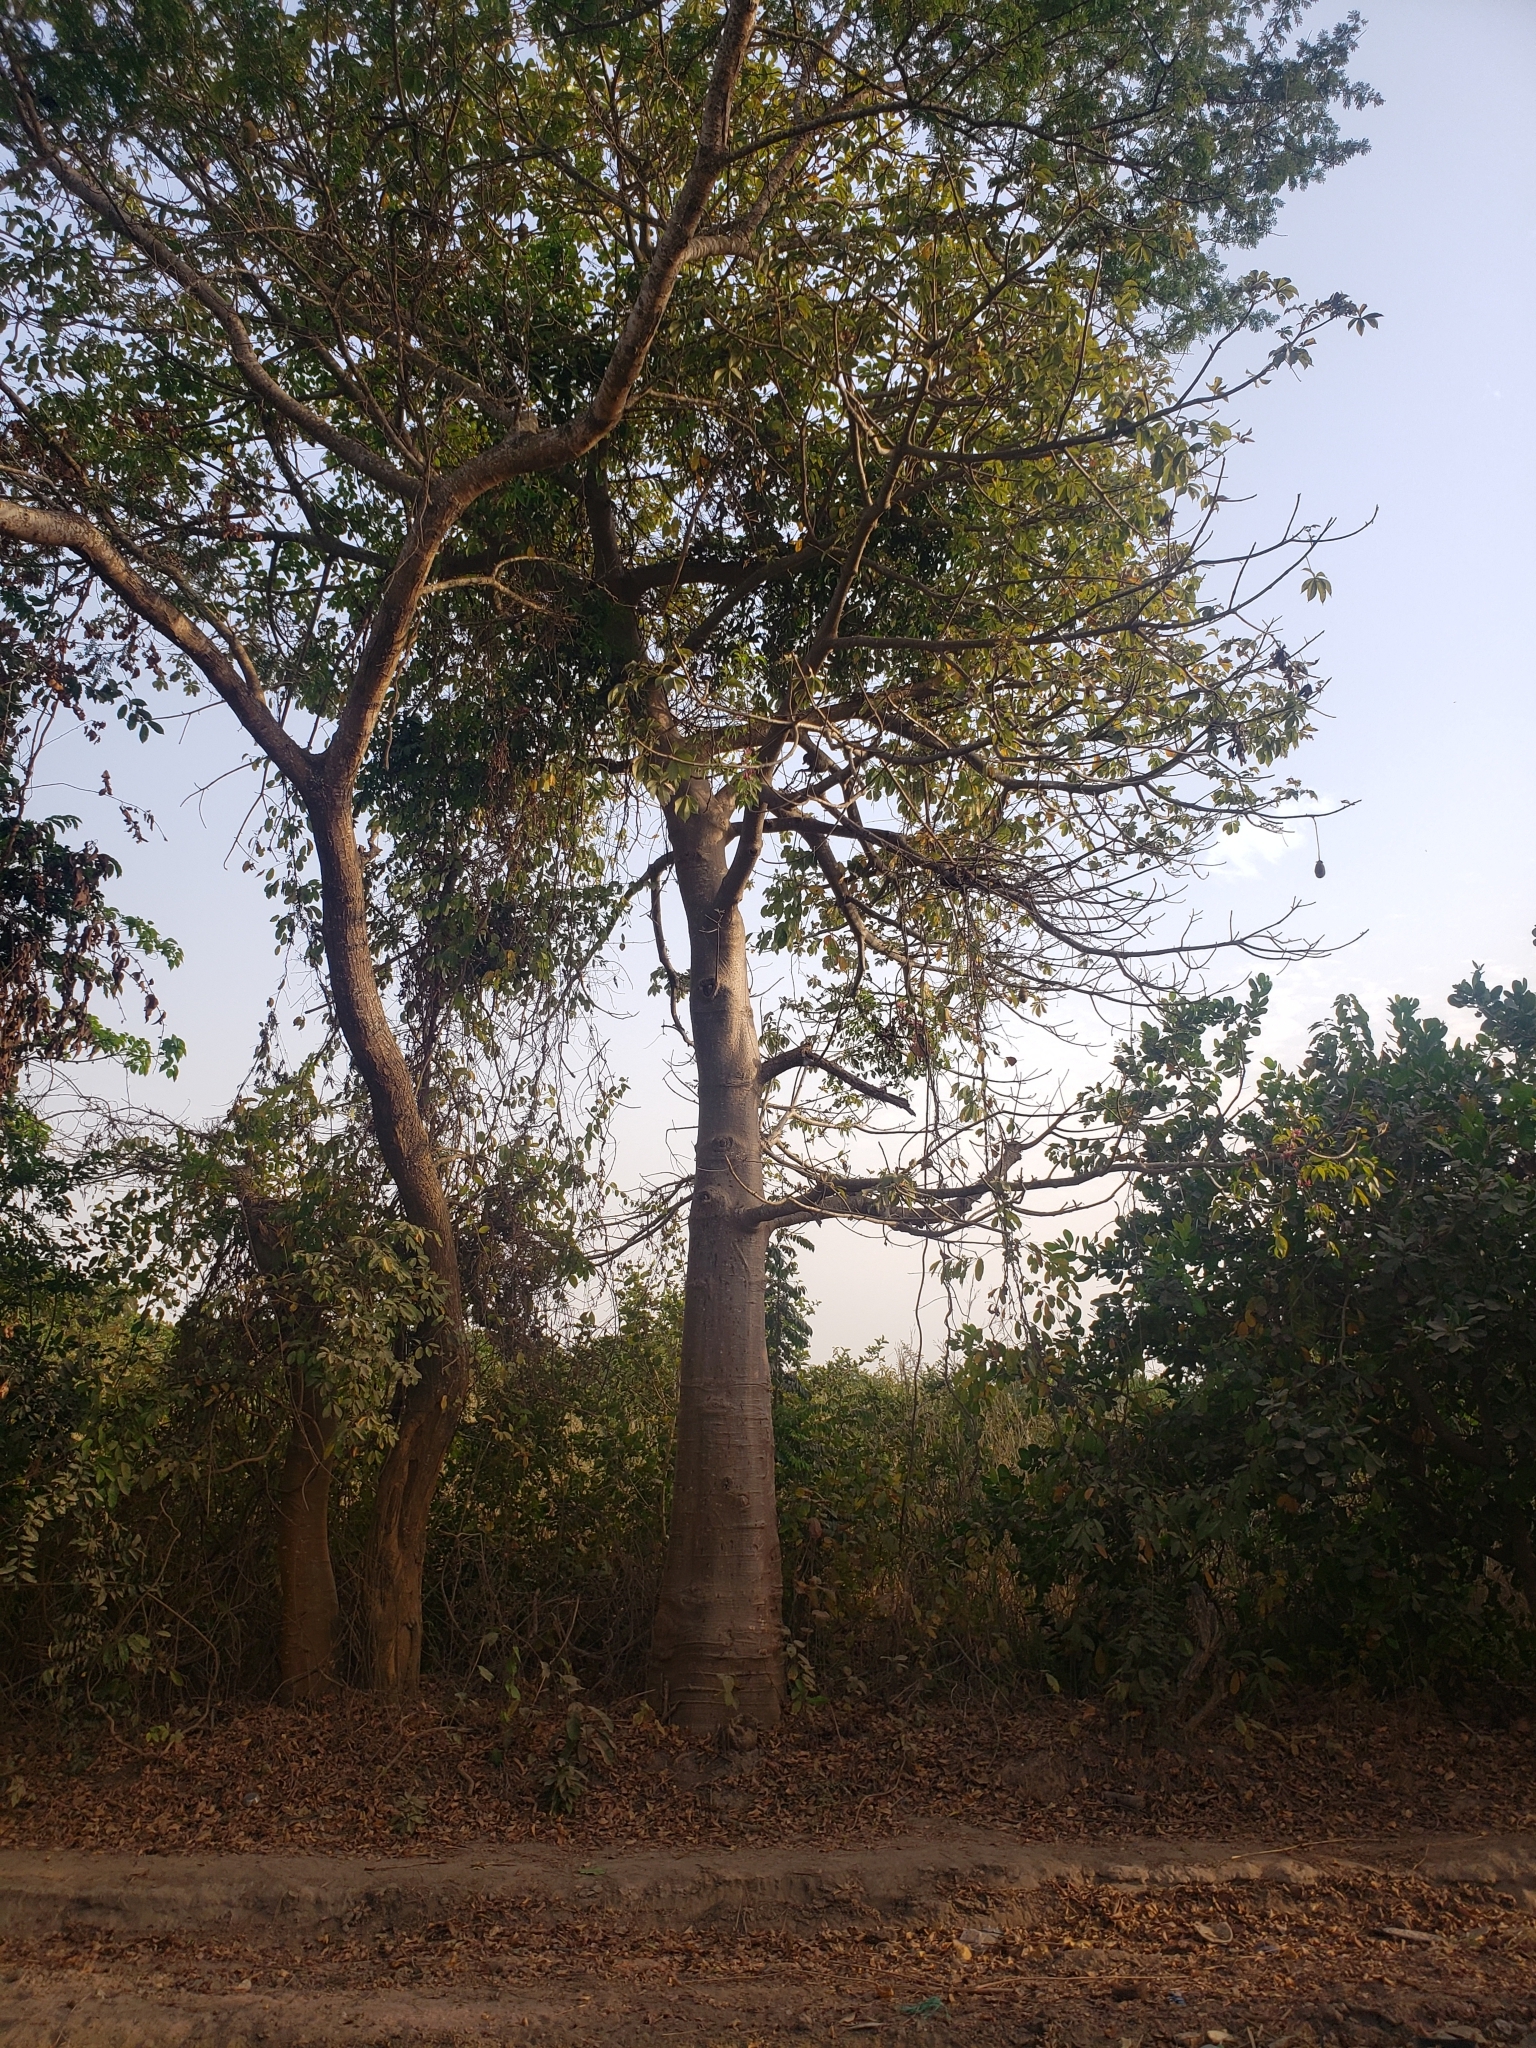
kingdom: Plantae
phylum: Tracheophyta
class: Magnoliopsida
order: Malvales
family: Malvaceae
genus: Adansonia
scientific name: Adansonia digitata
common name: Dead-rat-tree
